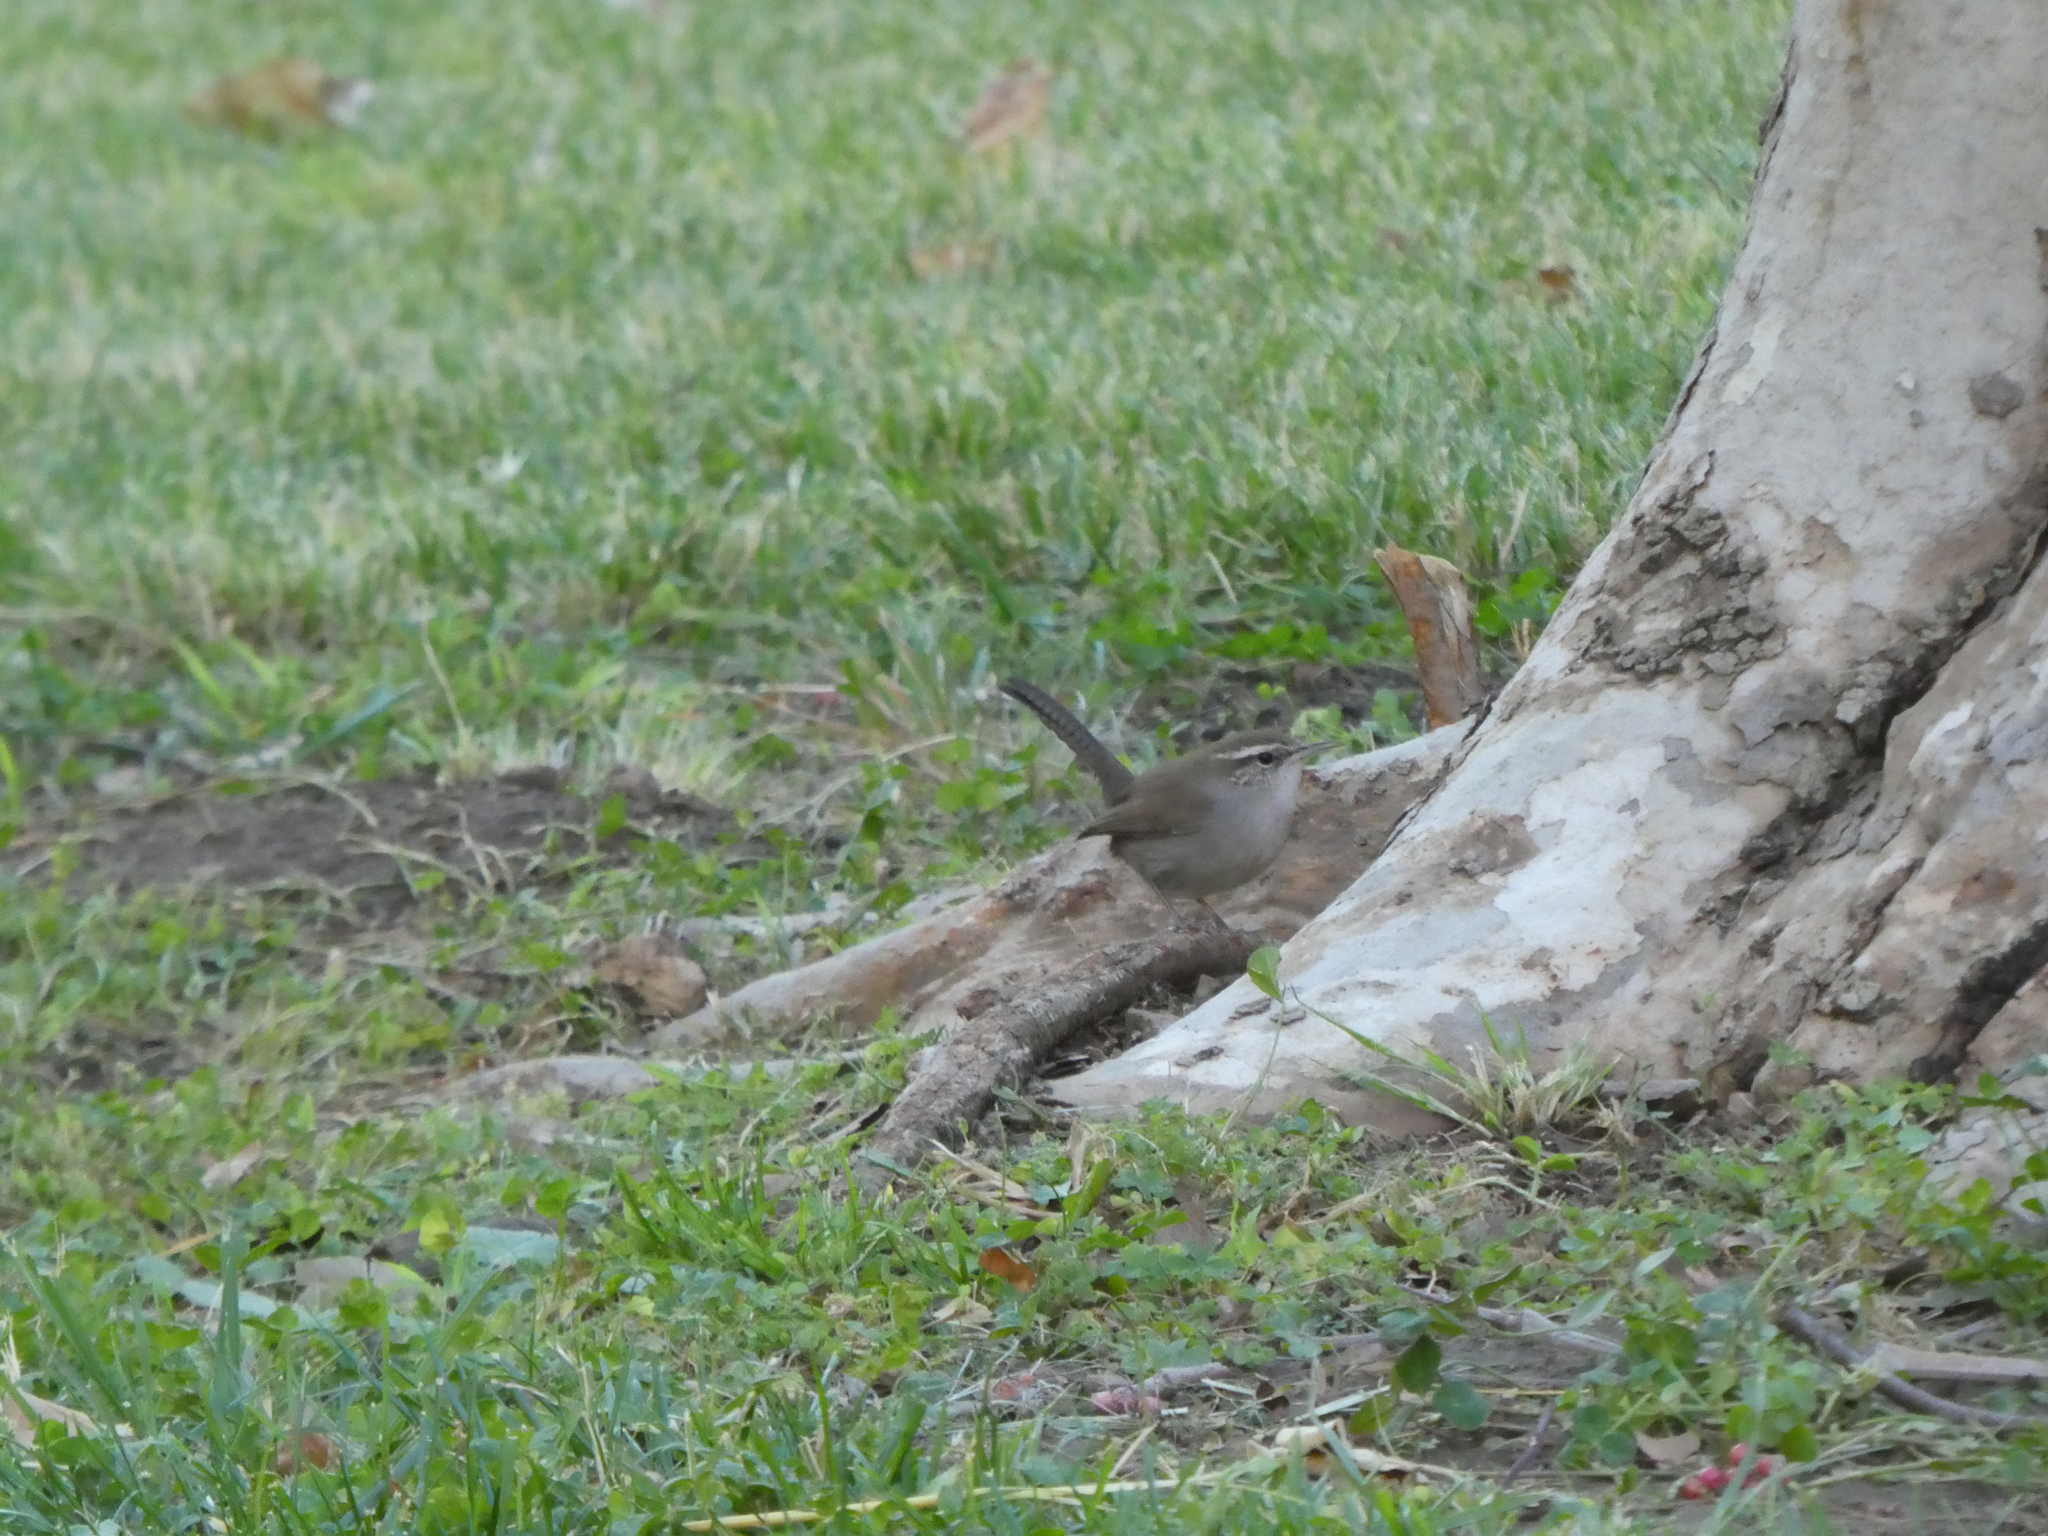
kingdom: Animalia
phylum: Chordata
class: Aves
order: Passeriformes
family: Troglodytidae
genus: Thryomanes
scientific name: Thryomanes bewickii
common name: Bewick's wren
